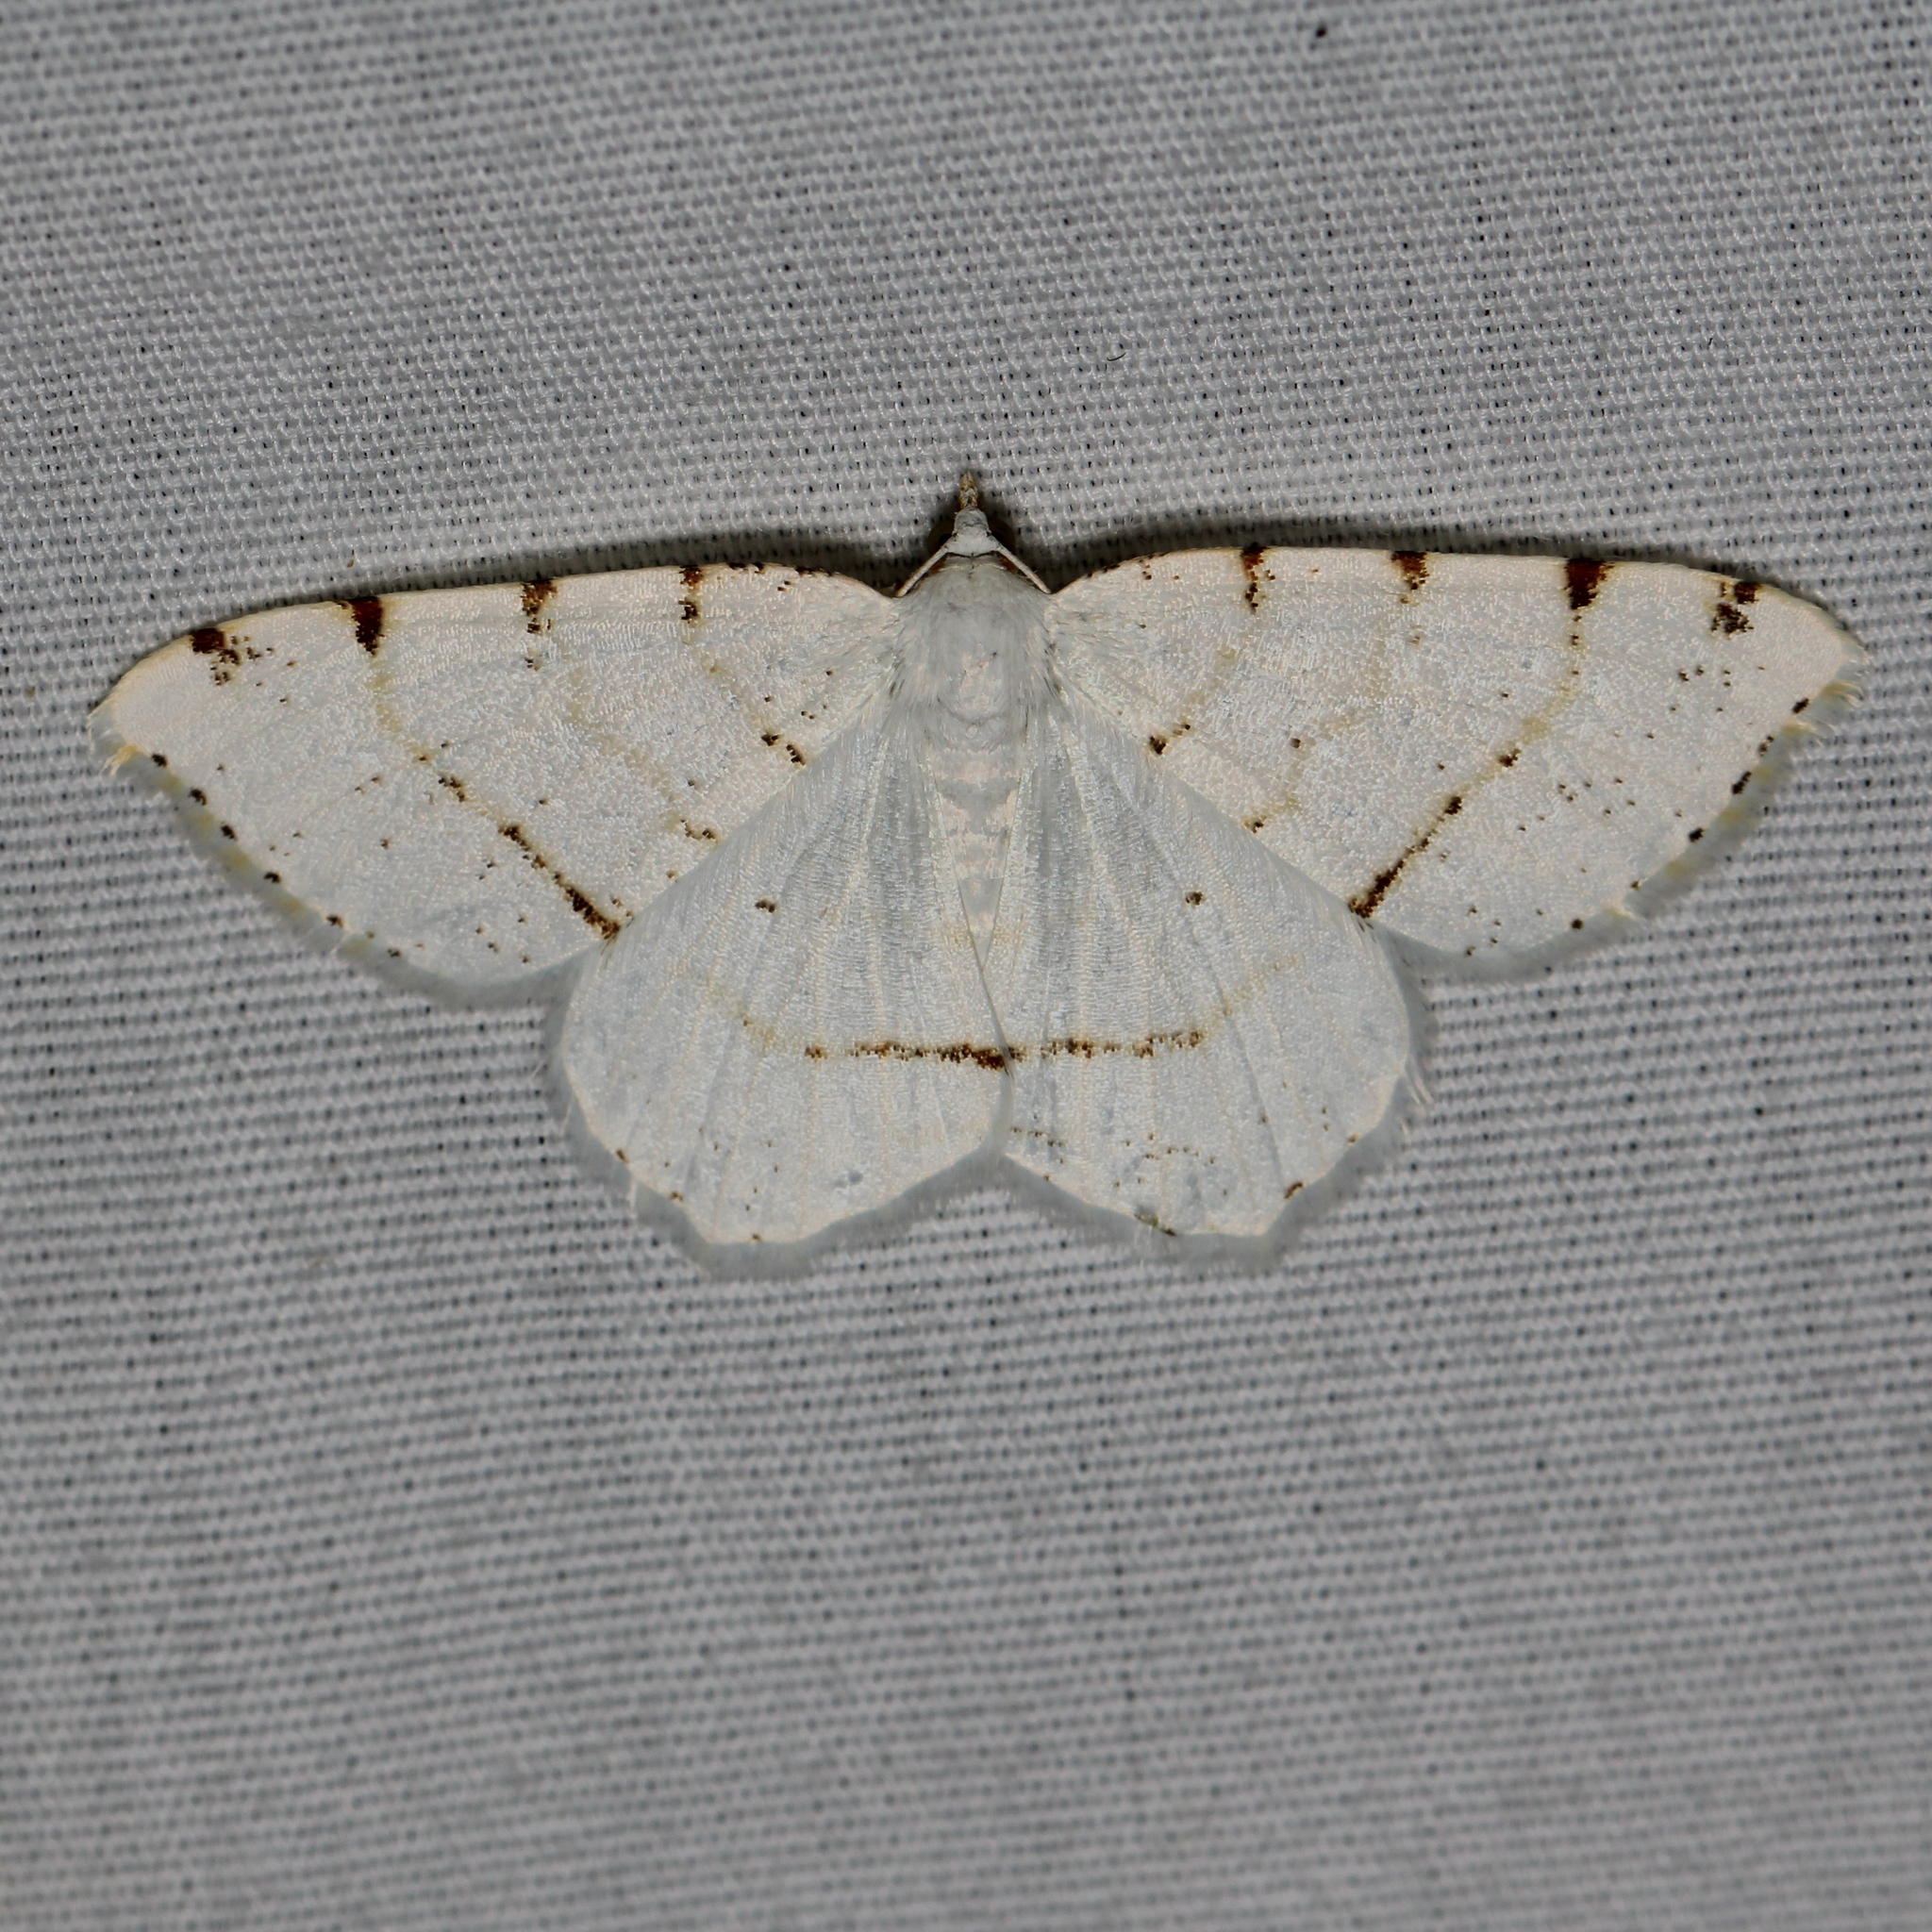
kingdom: Animalia
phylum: Arthropoda
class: Insecta
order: Lepidoptera
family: Geometridae
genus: Macaria
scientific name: Macaria pustularia
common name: Lesser maple spanworm moth
